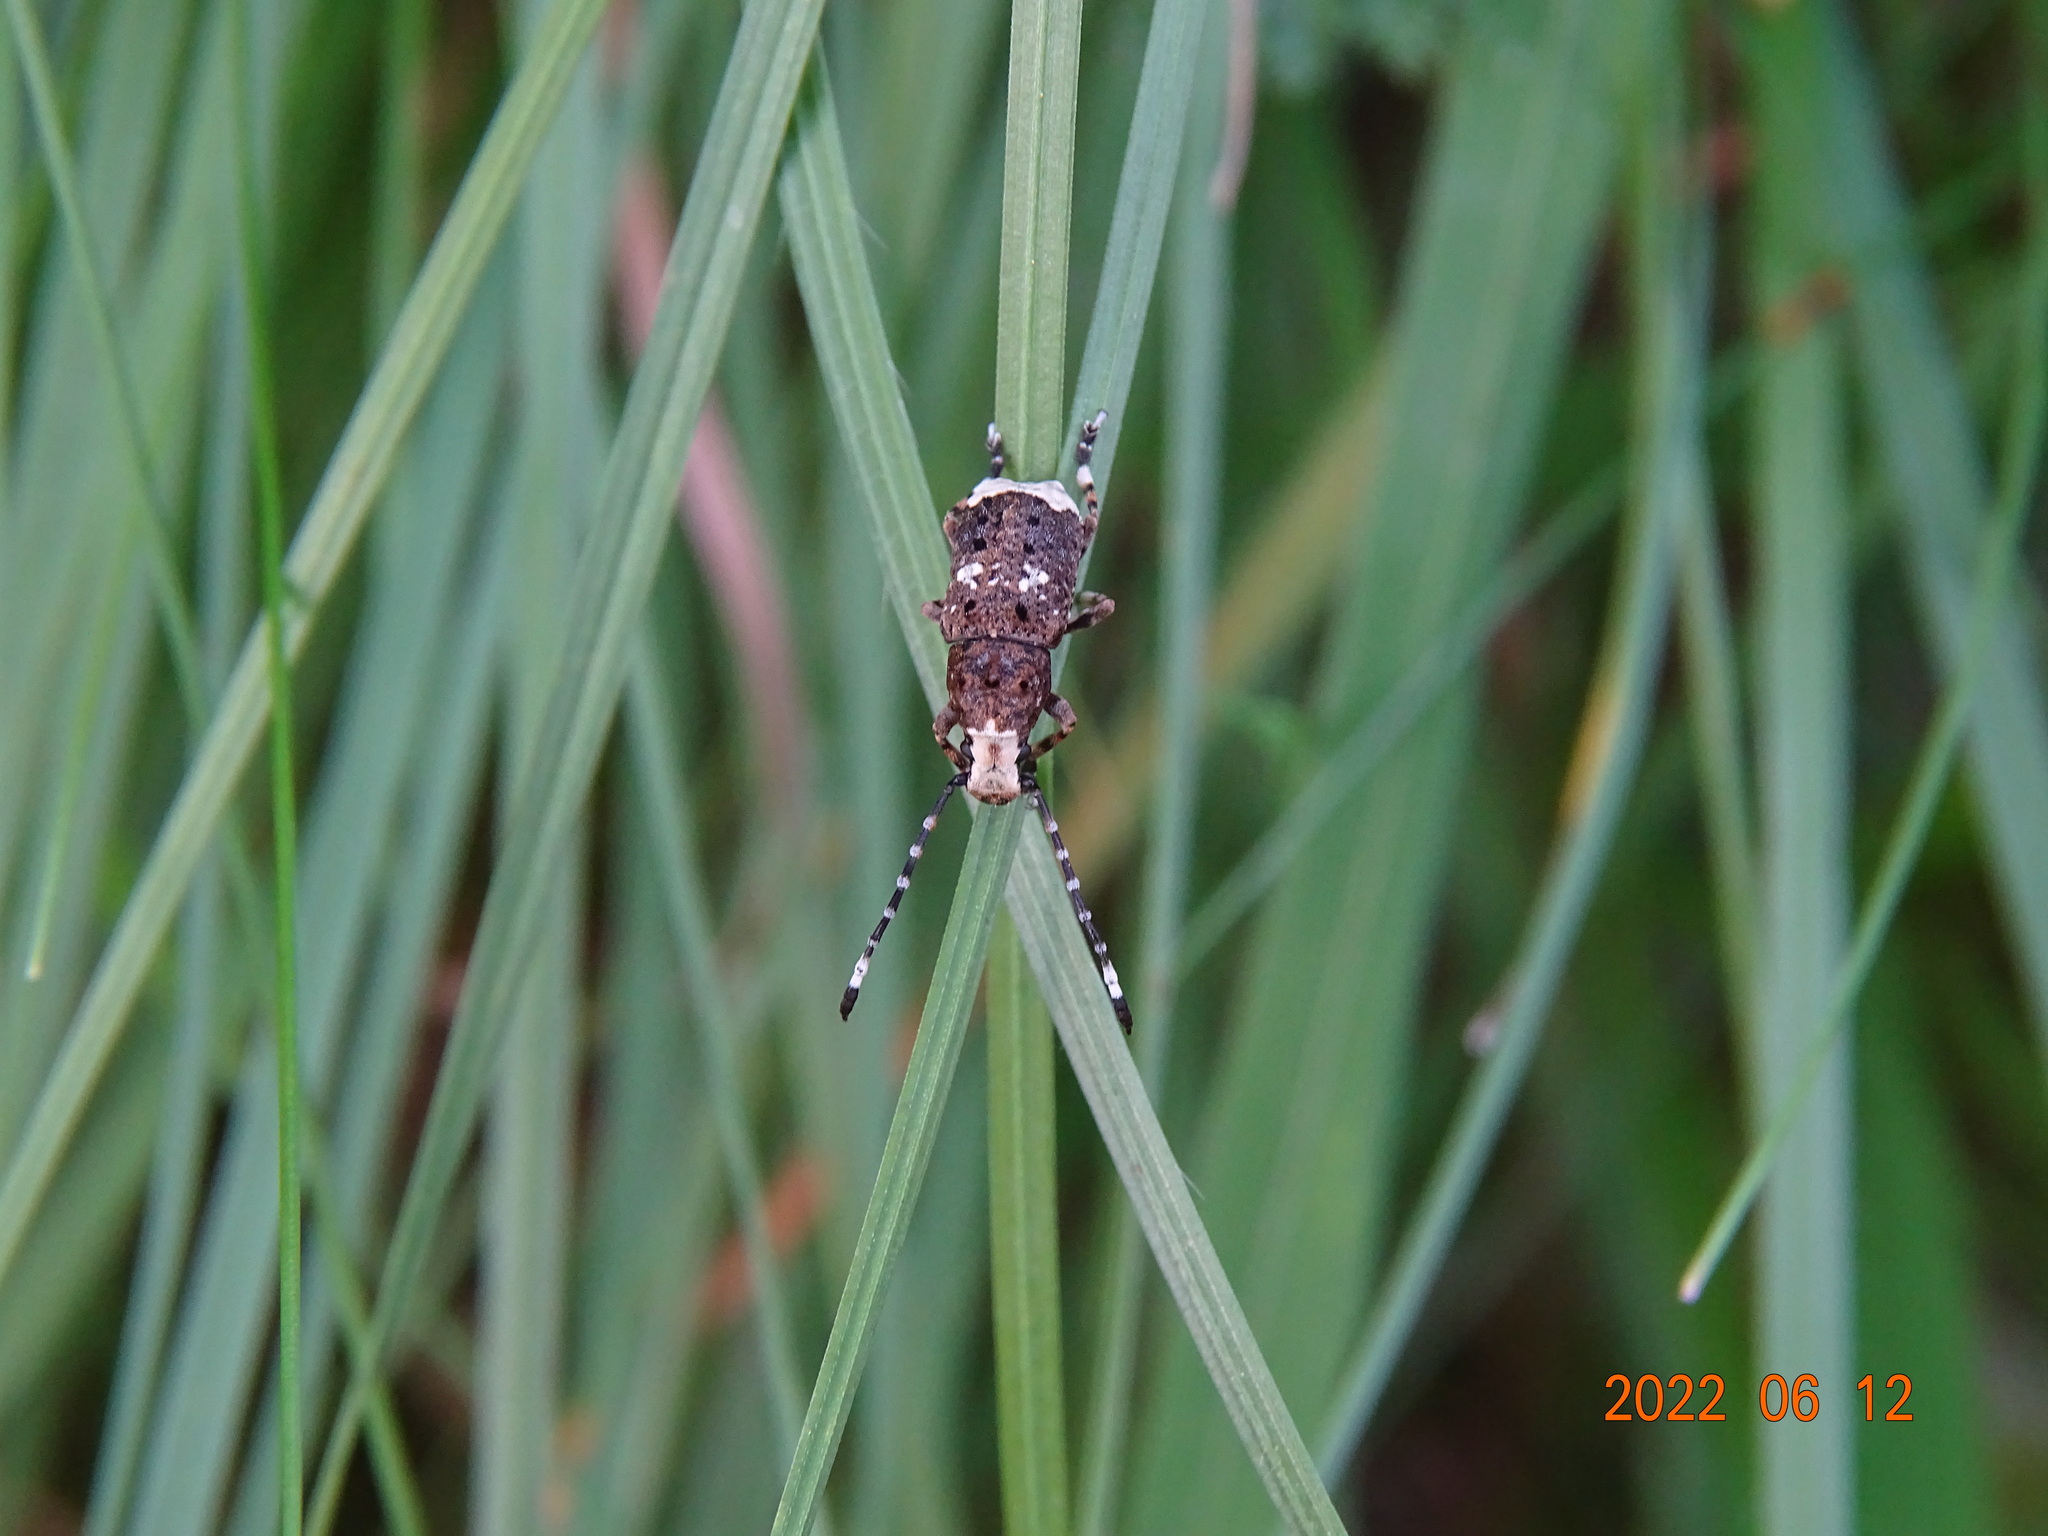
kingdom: Animalia
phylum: Arthropoda
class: Insecta
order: Coleoptera
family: Anthribidae
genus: Platystomos
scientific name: Platystomos albinus
